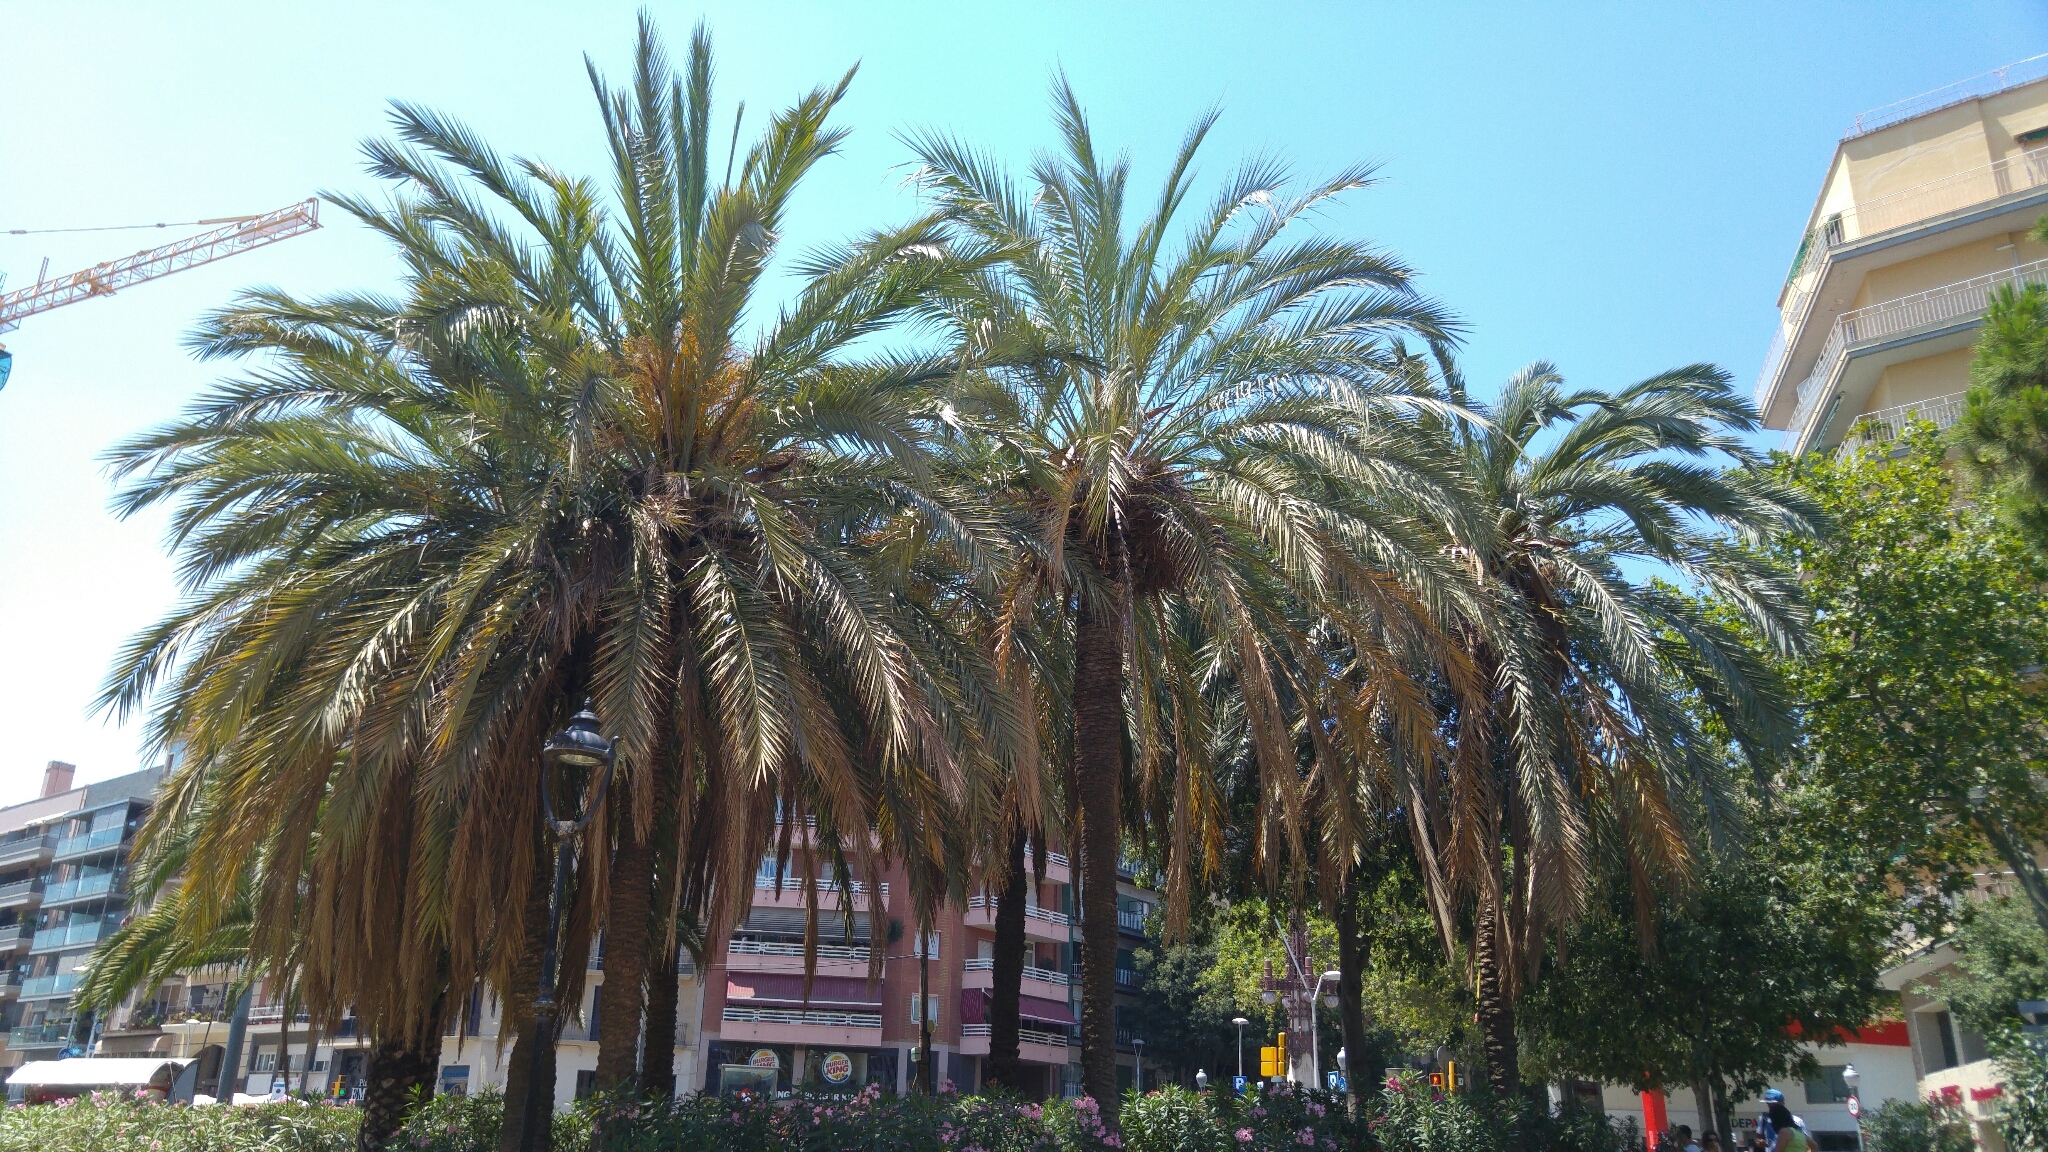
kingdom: Animalia
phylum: Chordata
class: Aves
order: Psittaciformes
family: Psittacidae
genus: Myiopsitta
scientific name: Myiopsitta monachus
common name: Monk parakeet
